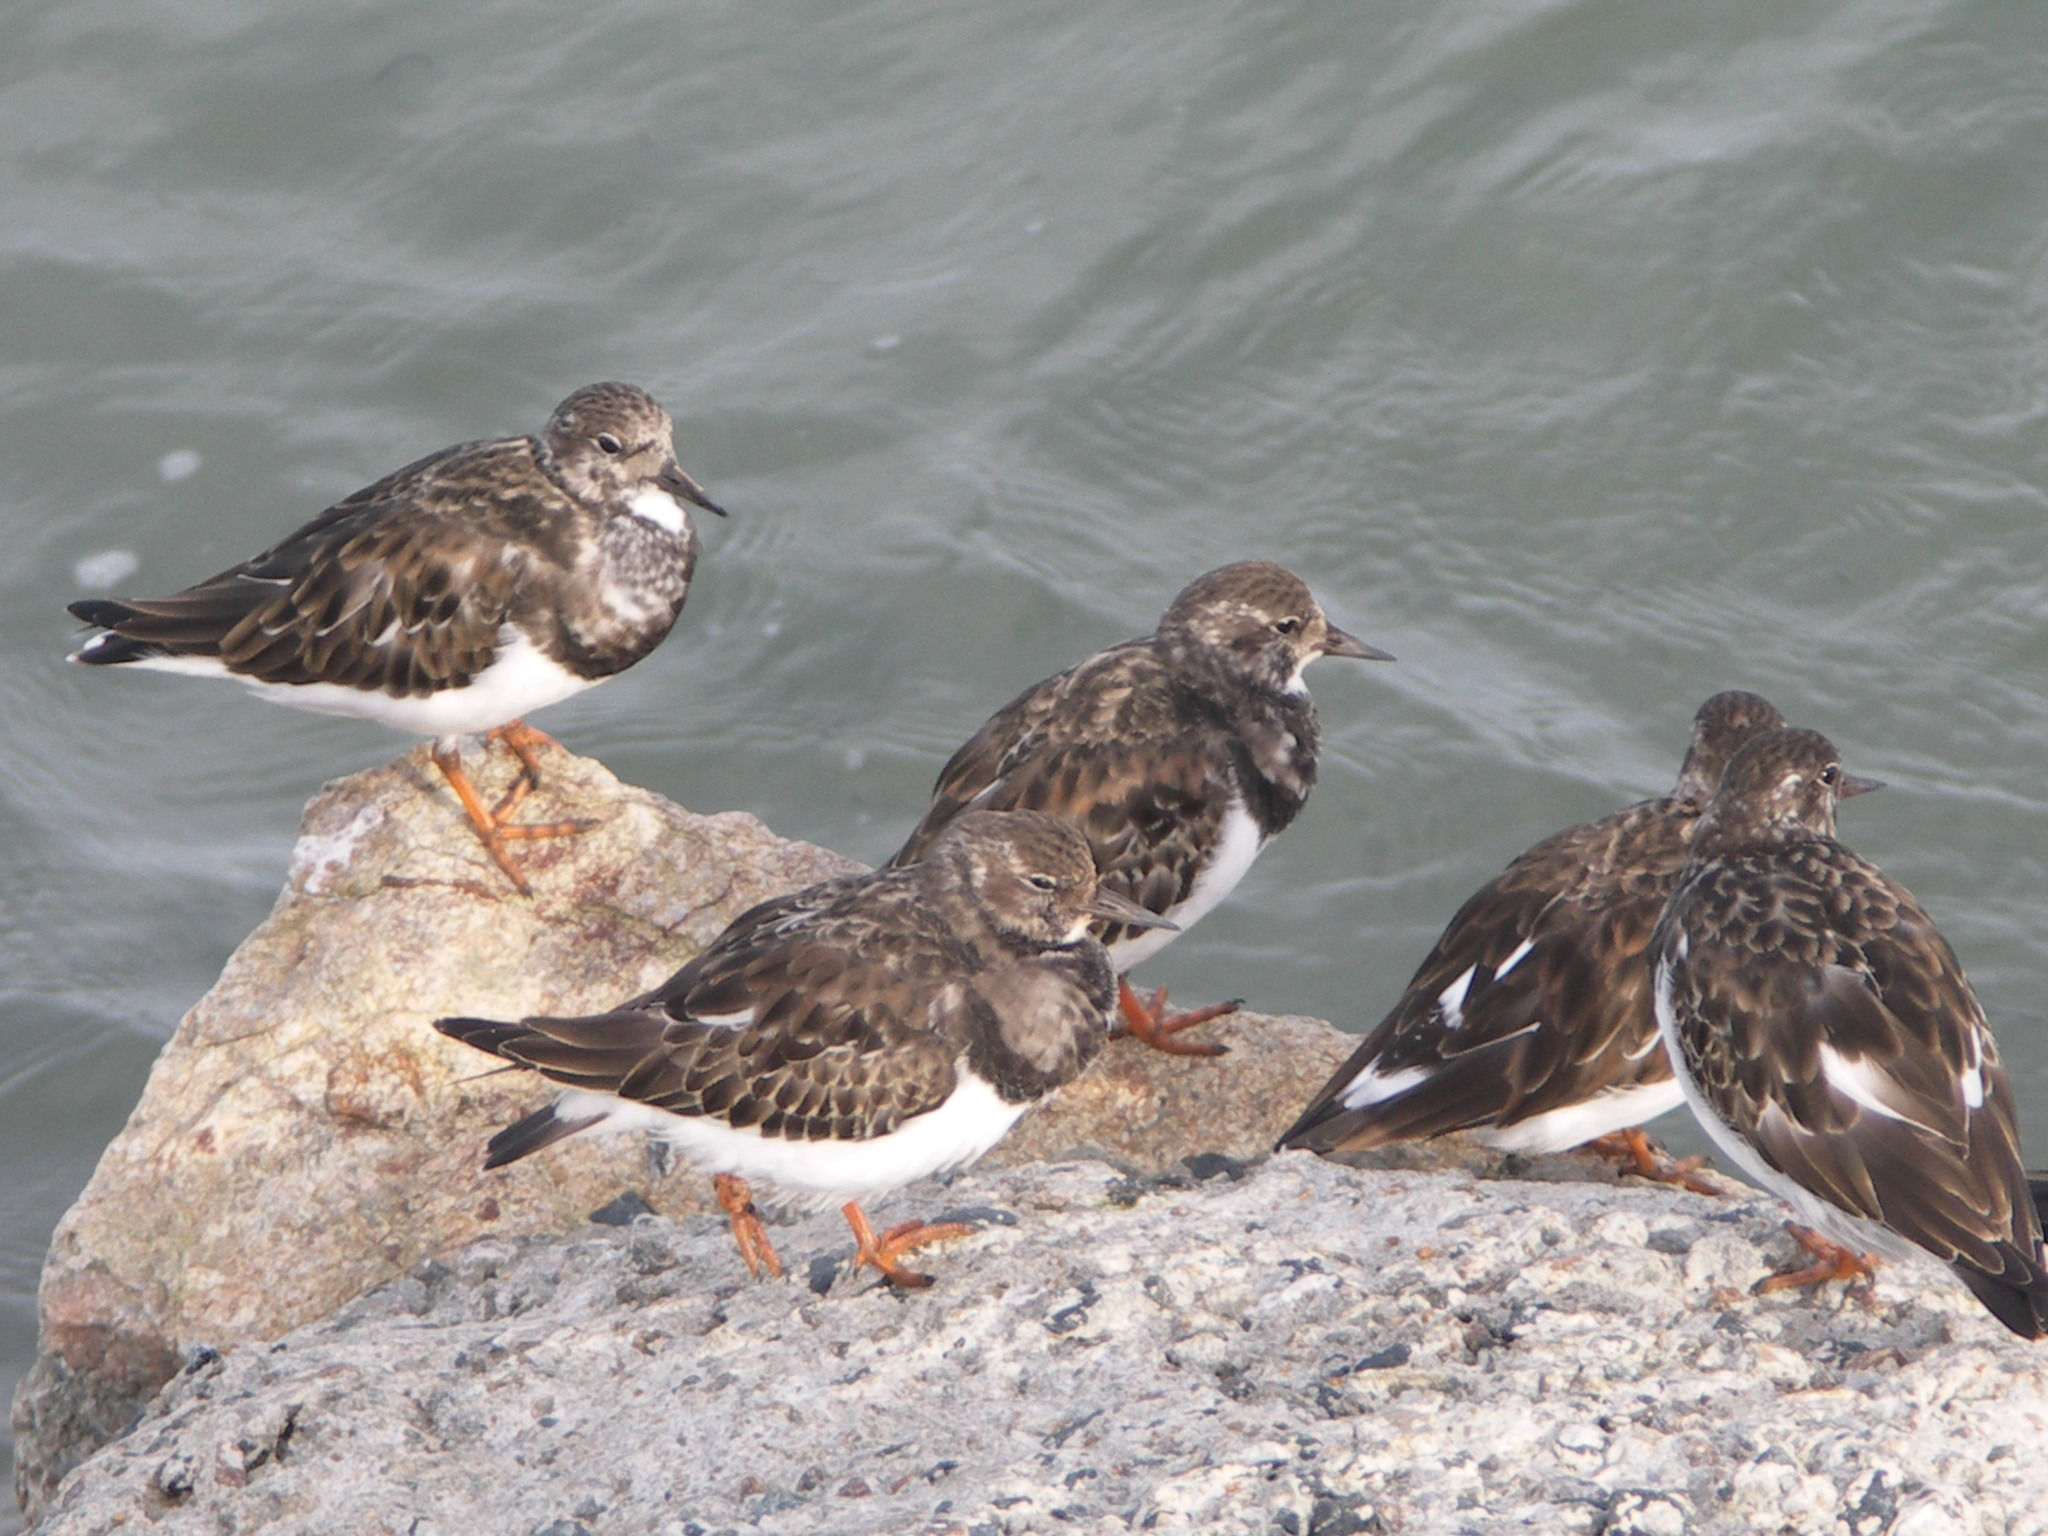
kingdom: Animalia
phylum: Chordata
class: Aves
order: Charadriiformes
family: Scolopacidae
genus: Arenaria
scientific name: Arenaria interpres
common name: Ruddy turnstone
